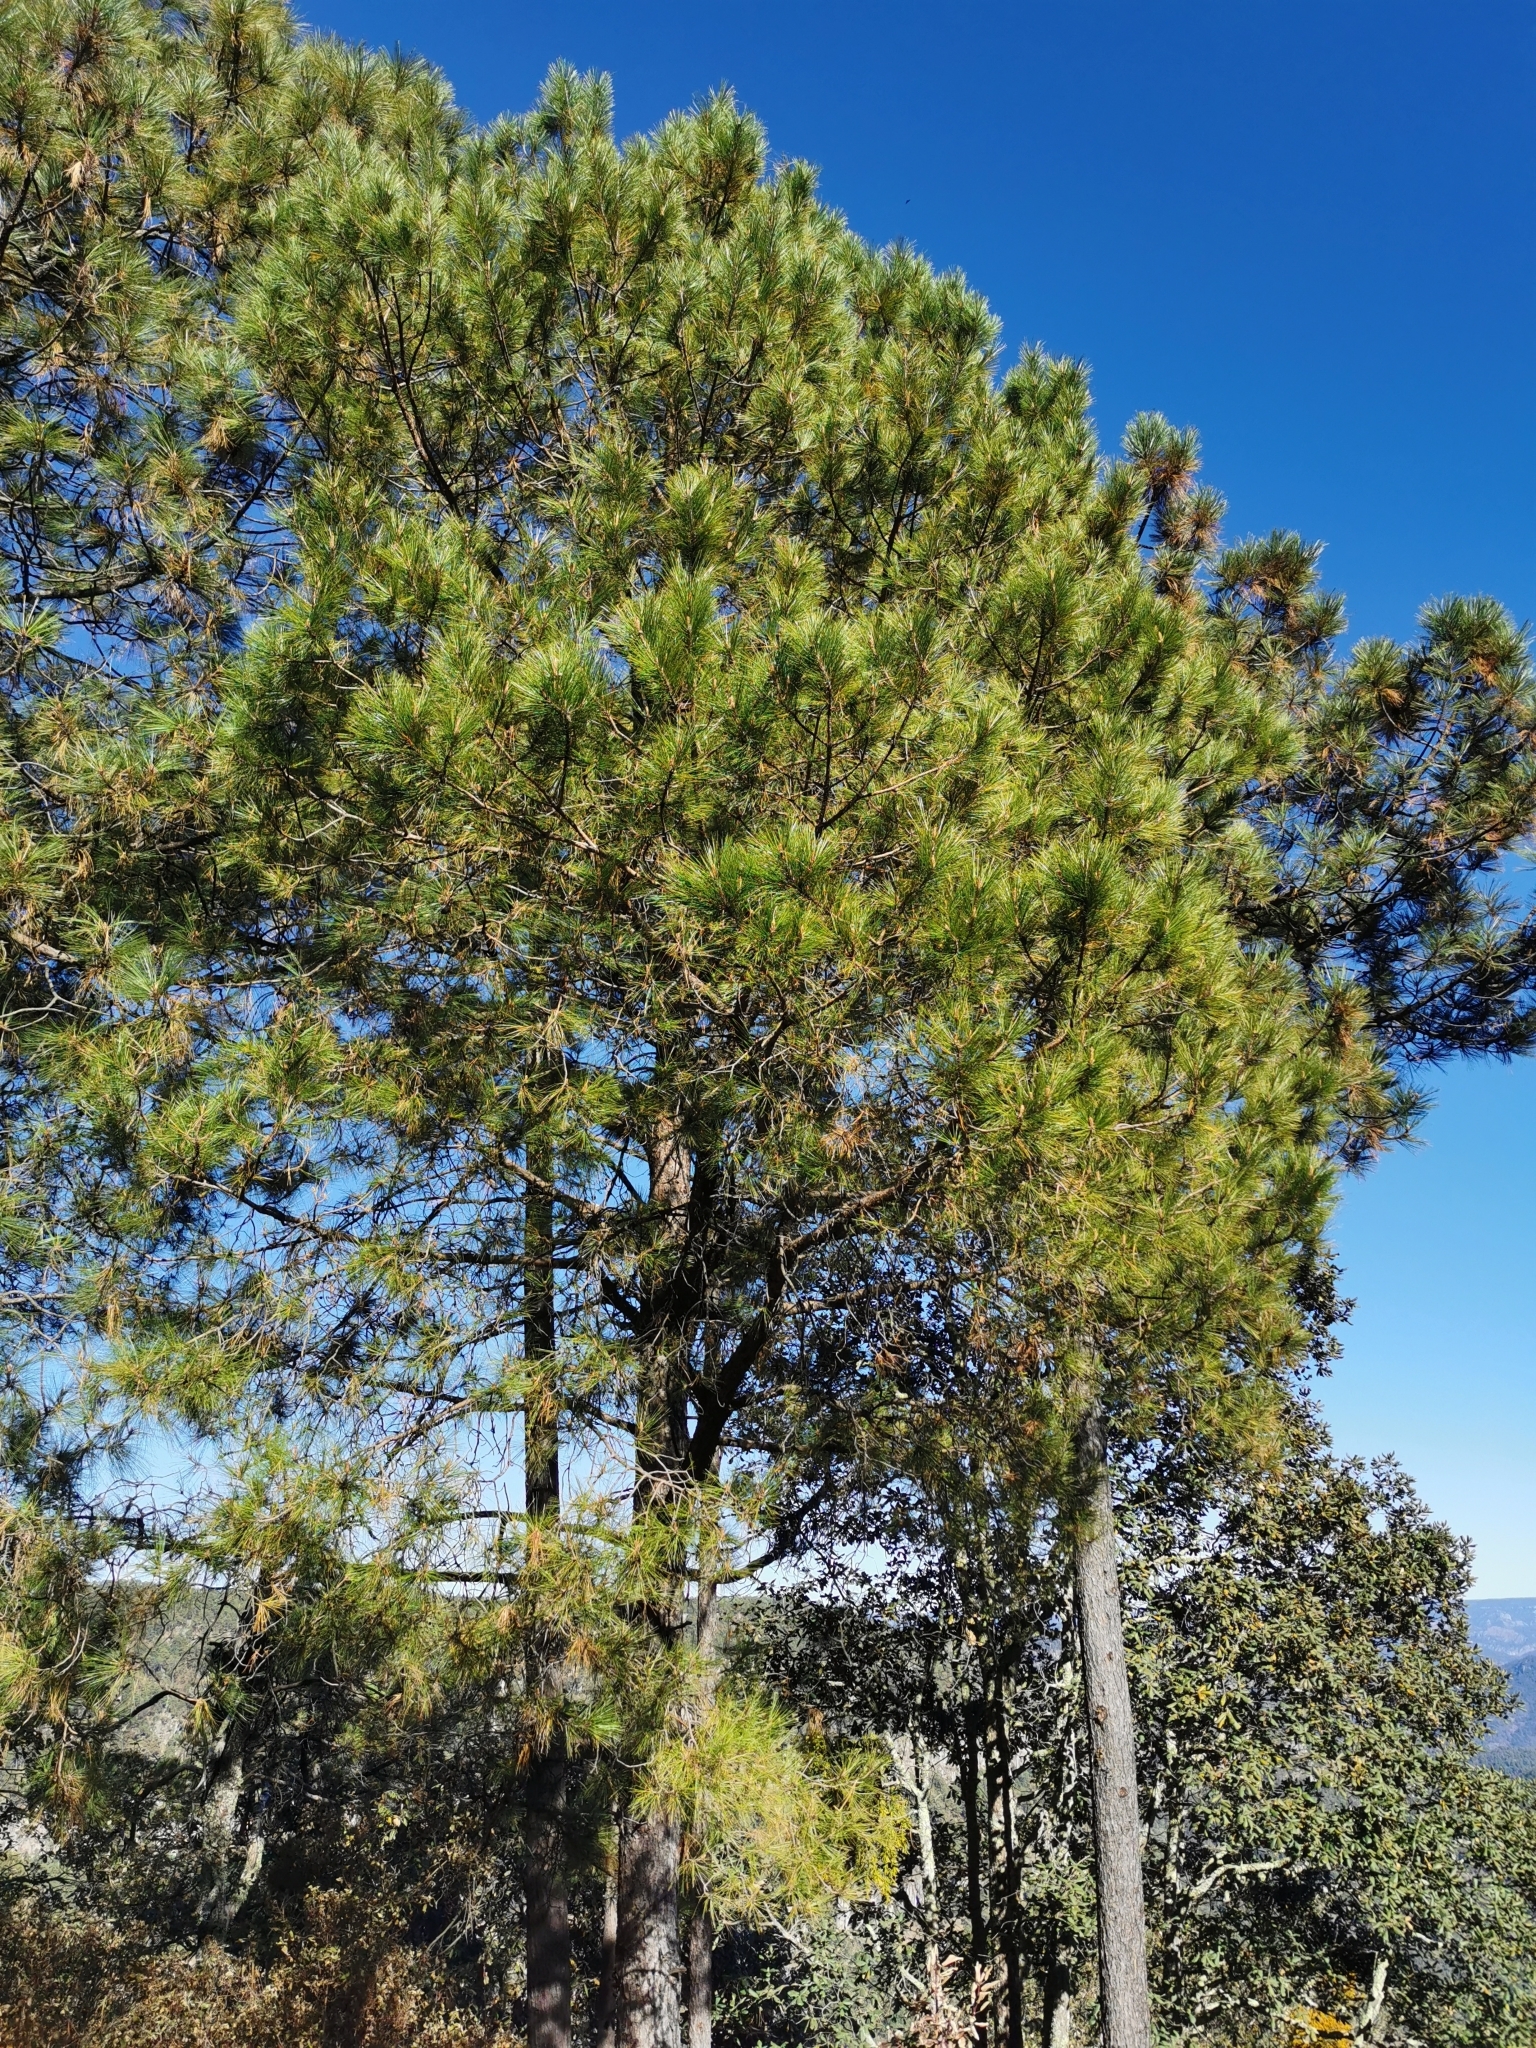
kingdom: Plantae
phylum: Tracheophyta
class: Pinopsida
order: Pinales
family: Pinaceae
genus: Pinus
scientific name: Pinus herrerae
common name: Herrera's pine
